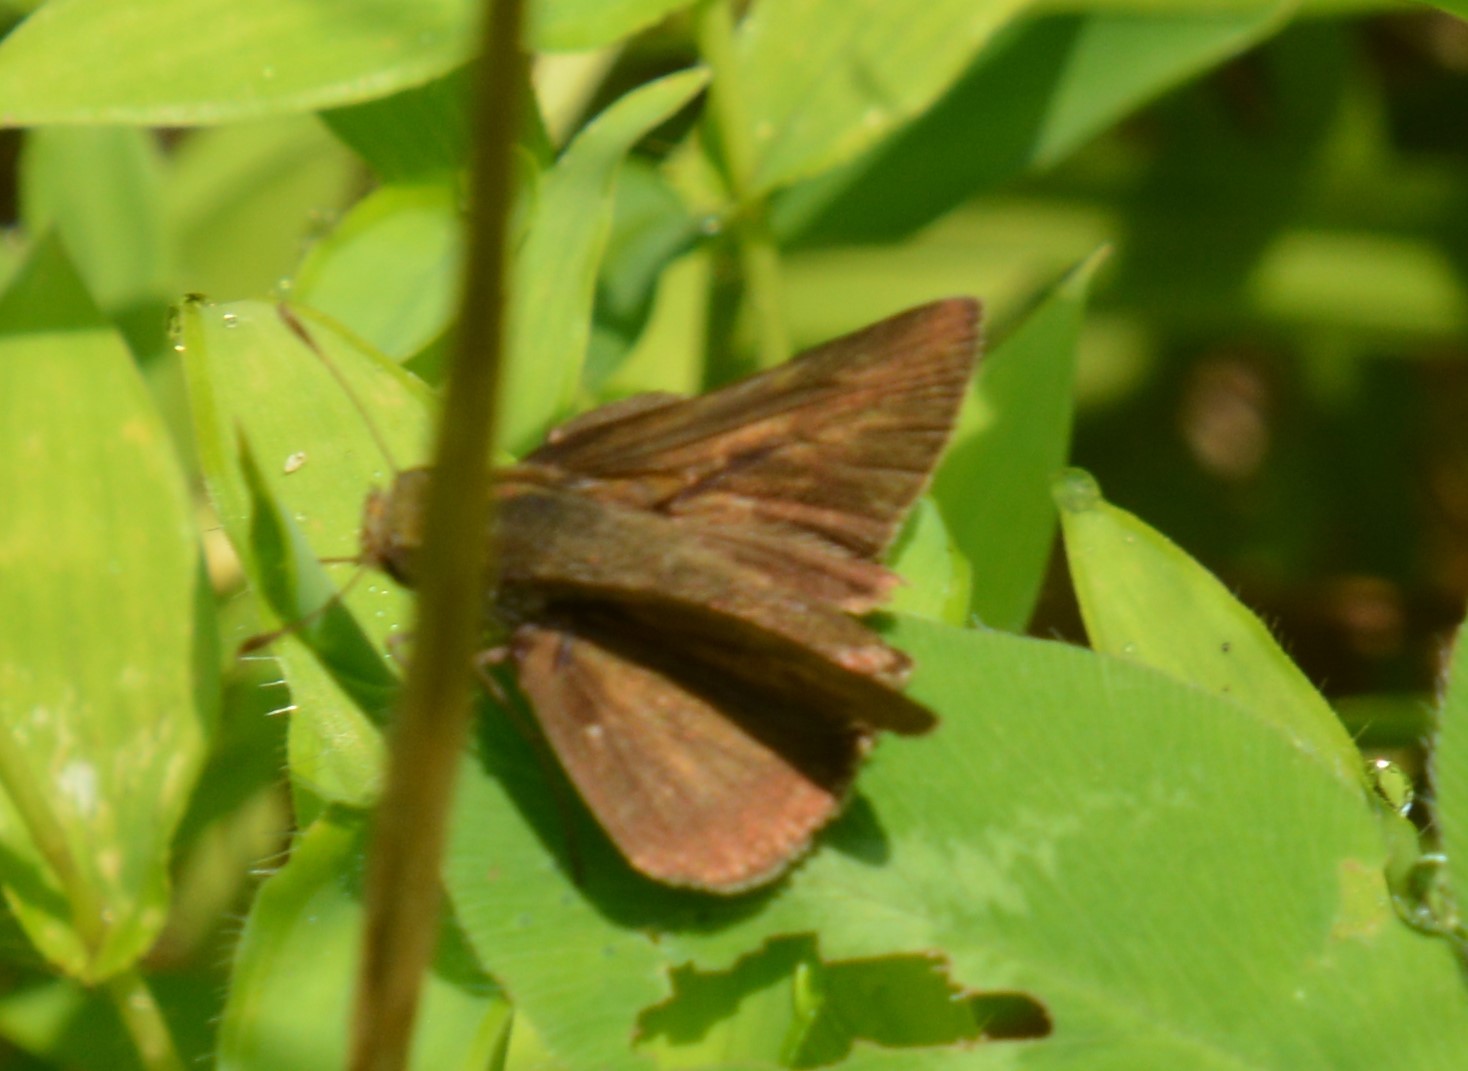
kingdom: Animalia
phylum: Arthropoda
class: Insecta
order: Lepidoptera
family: Hesperiidae
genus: Euphyes
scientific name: Euphyes vestris
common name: Dun skipper
